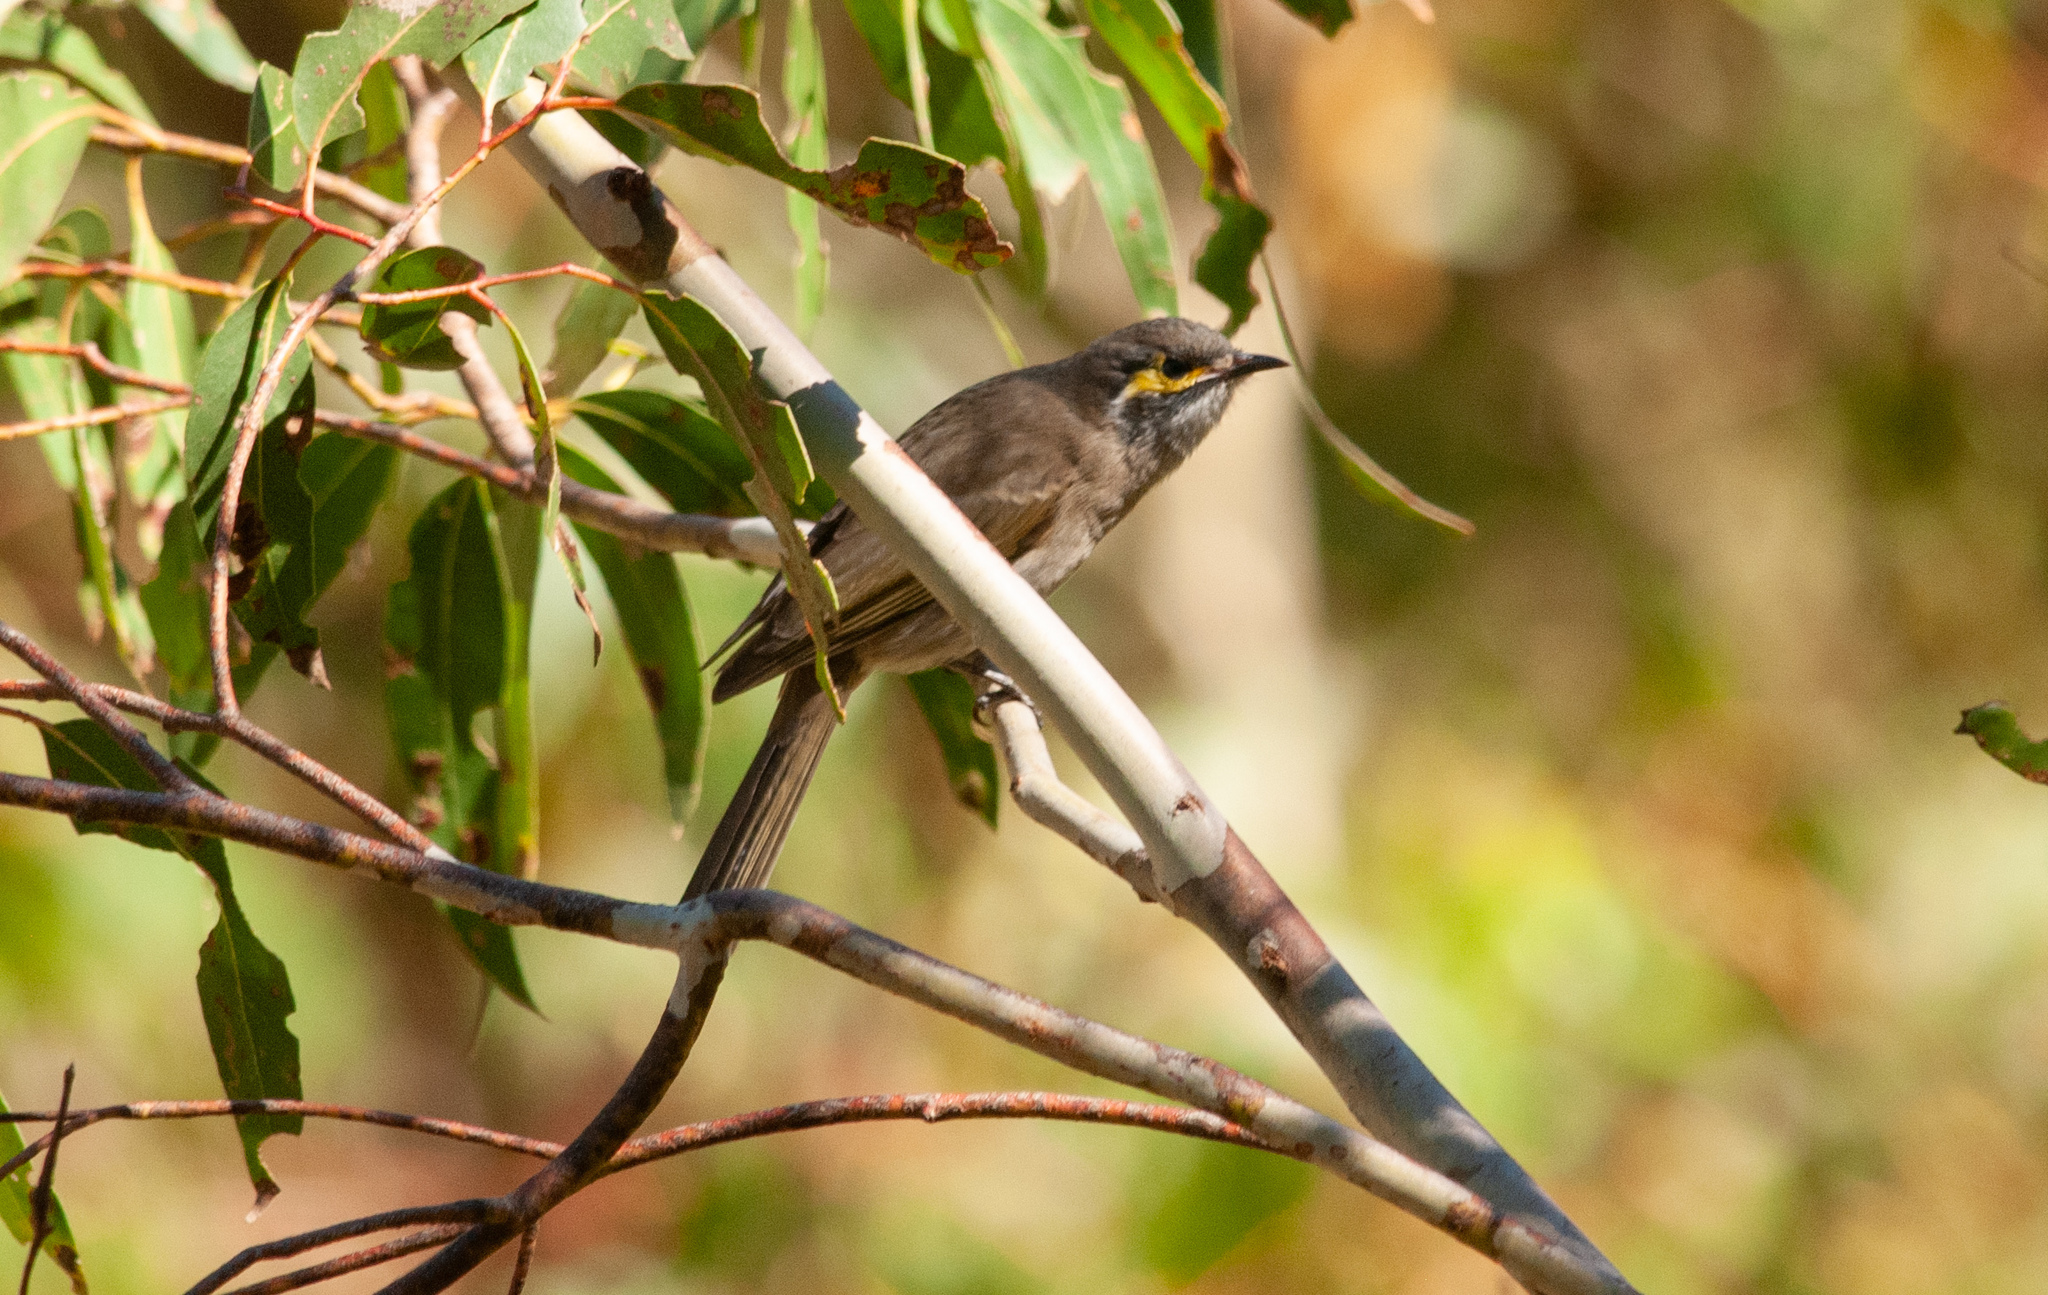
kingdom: Animalia
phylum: Chordata
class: Aves
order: Passeriformes
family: Meliphagidae
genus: Caligavis
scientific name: Caligavis chrysops
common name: Yellow-faced honeyeater
